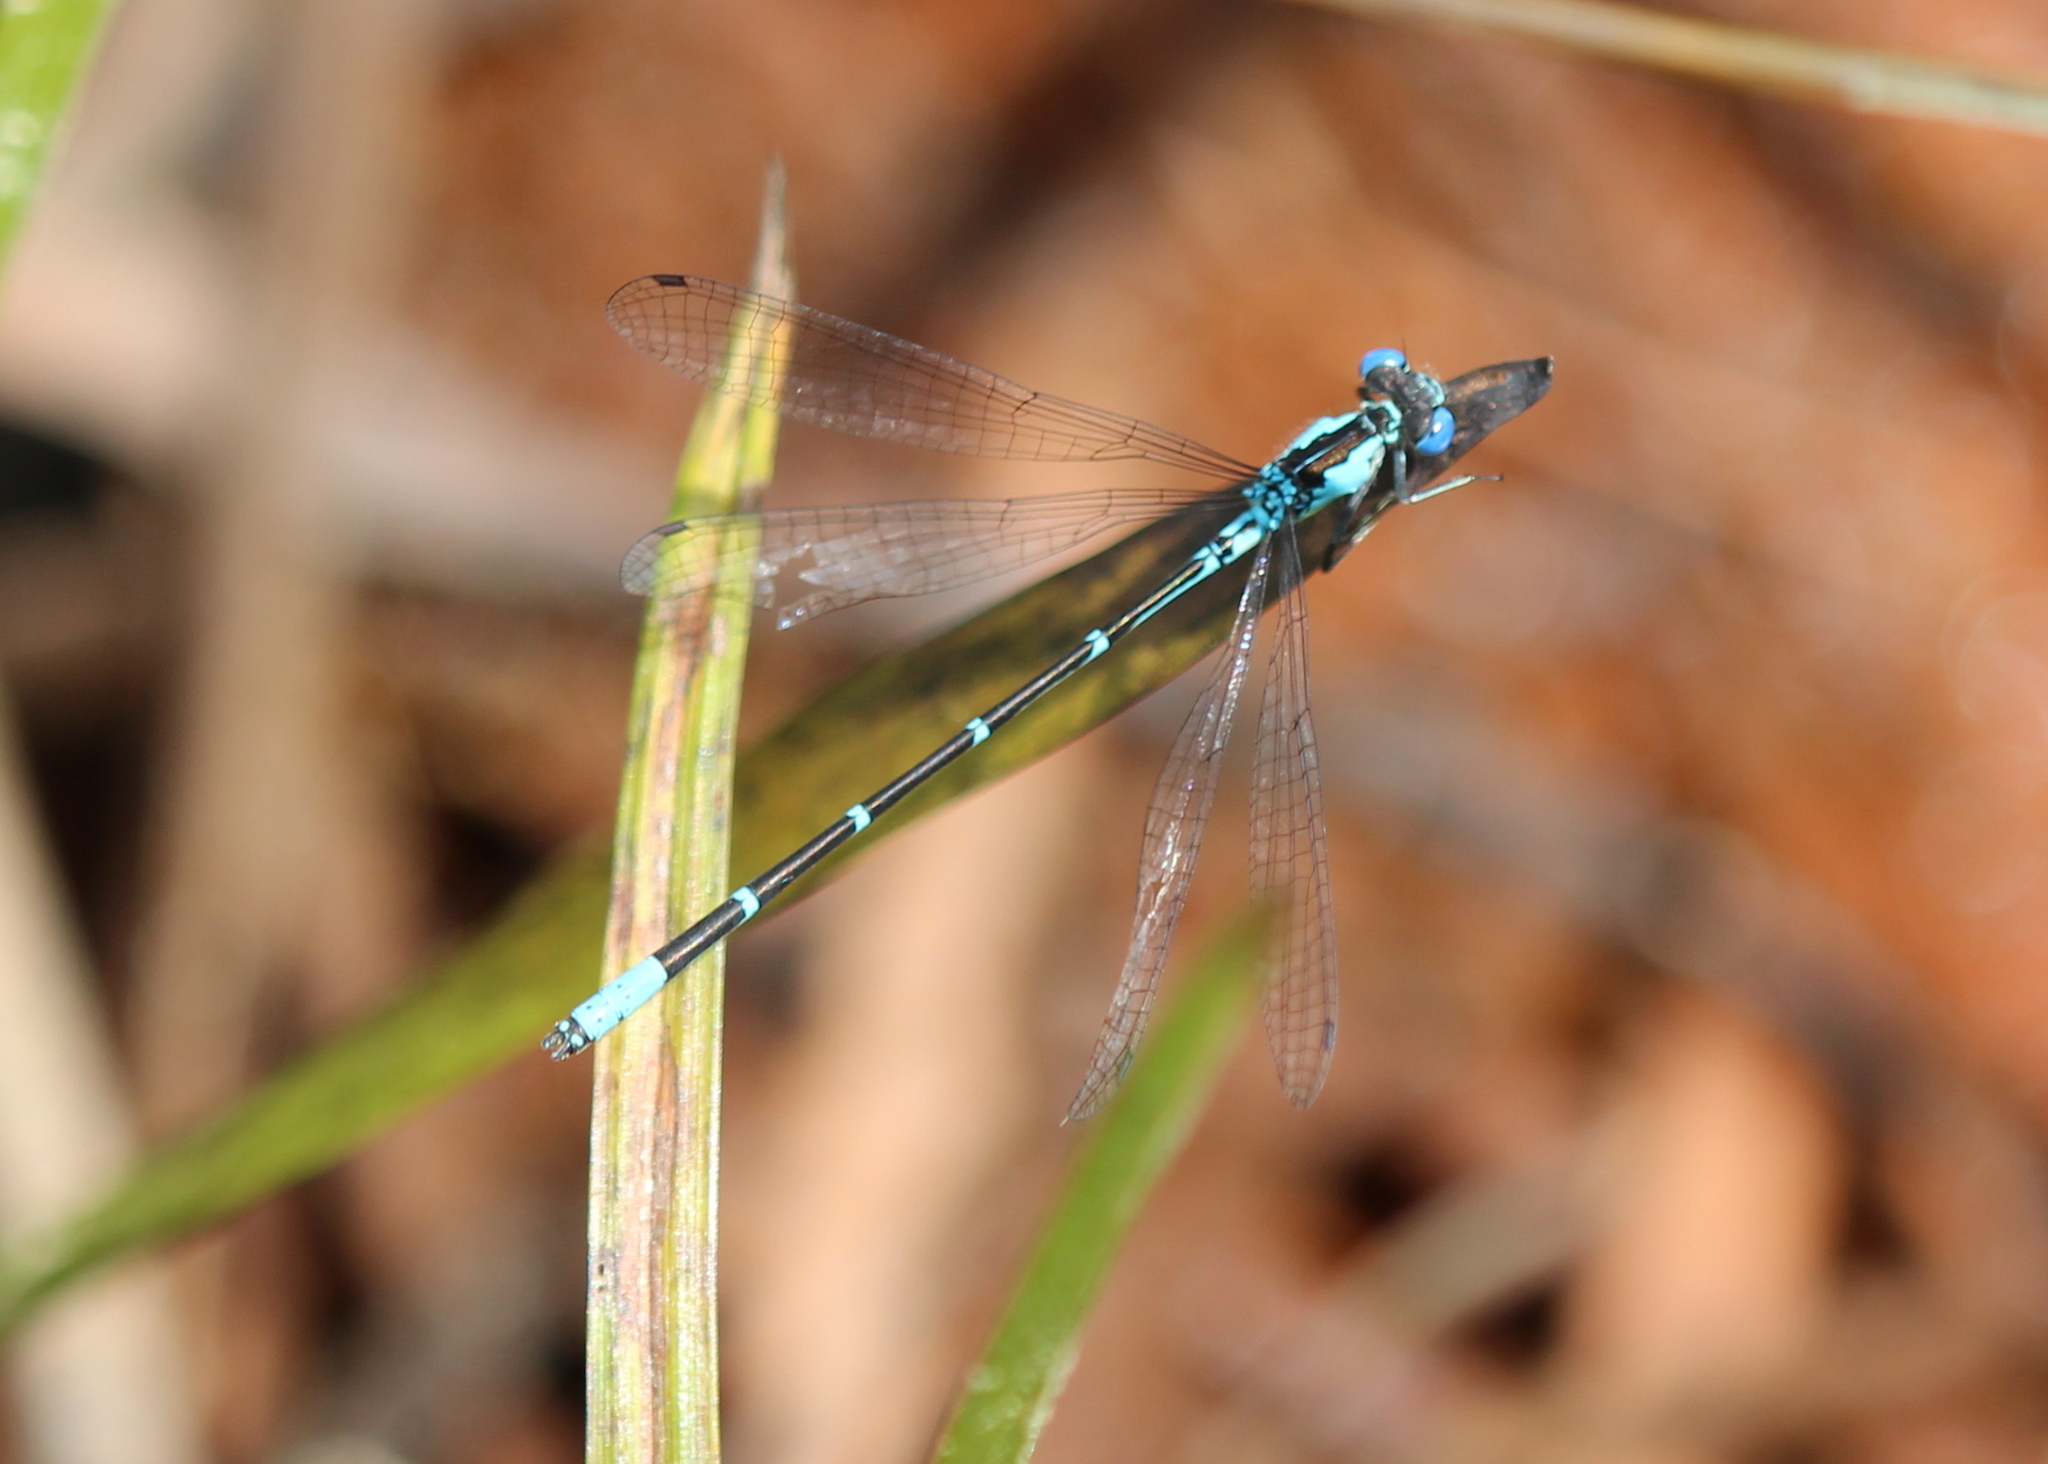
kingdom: Animalia
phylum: Arthropoda
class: Insecta
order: Odonata
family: Coenagrionidae
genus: Chromagrion
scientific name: Chromagrion conditum
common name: Aurora damsel
